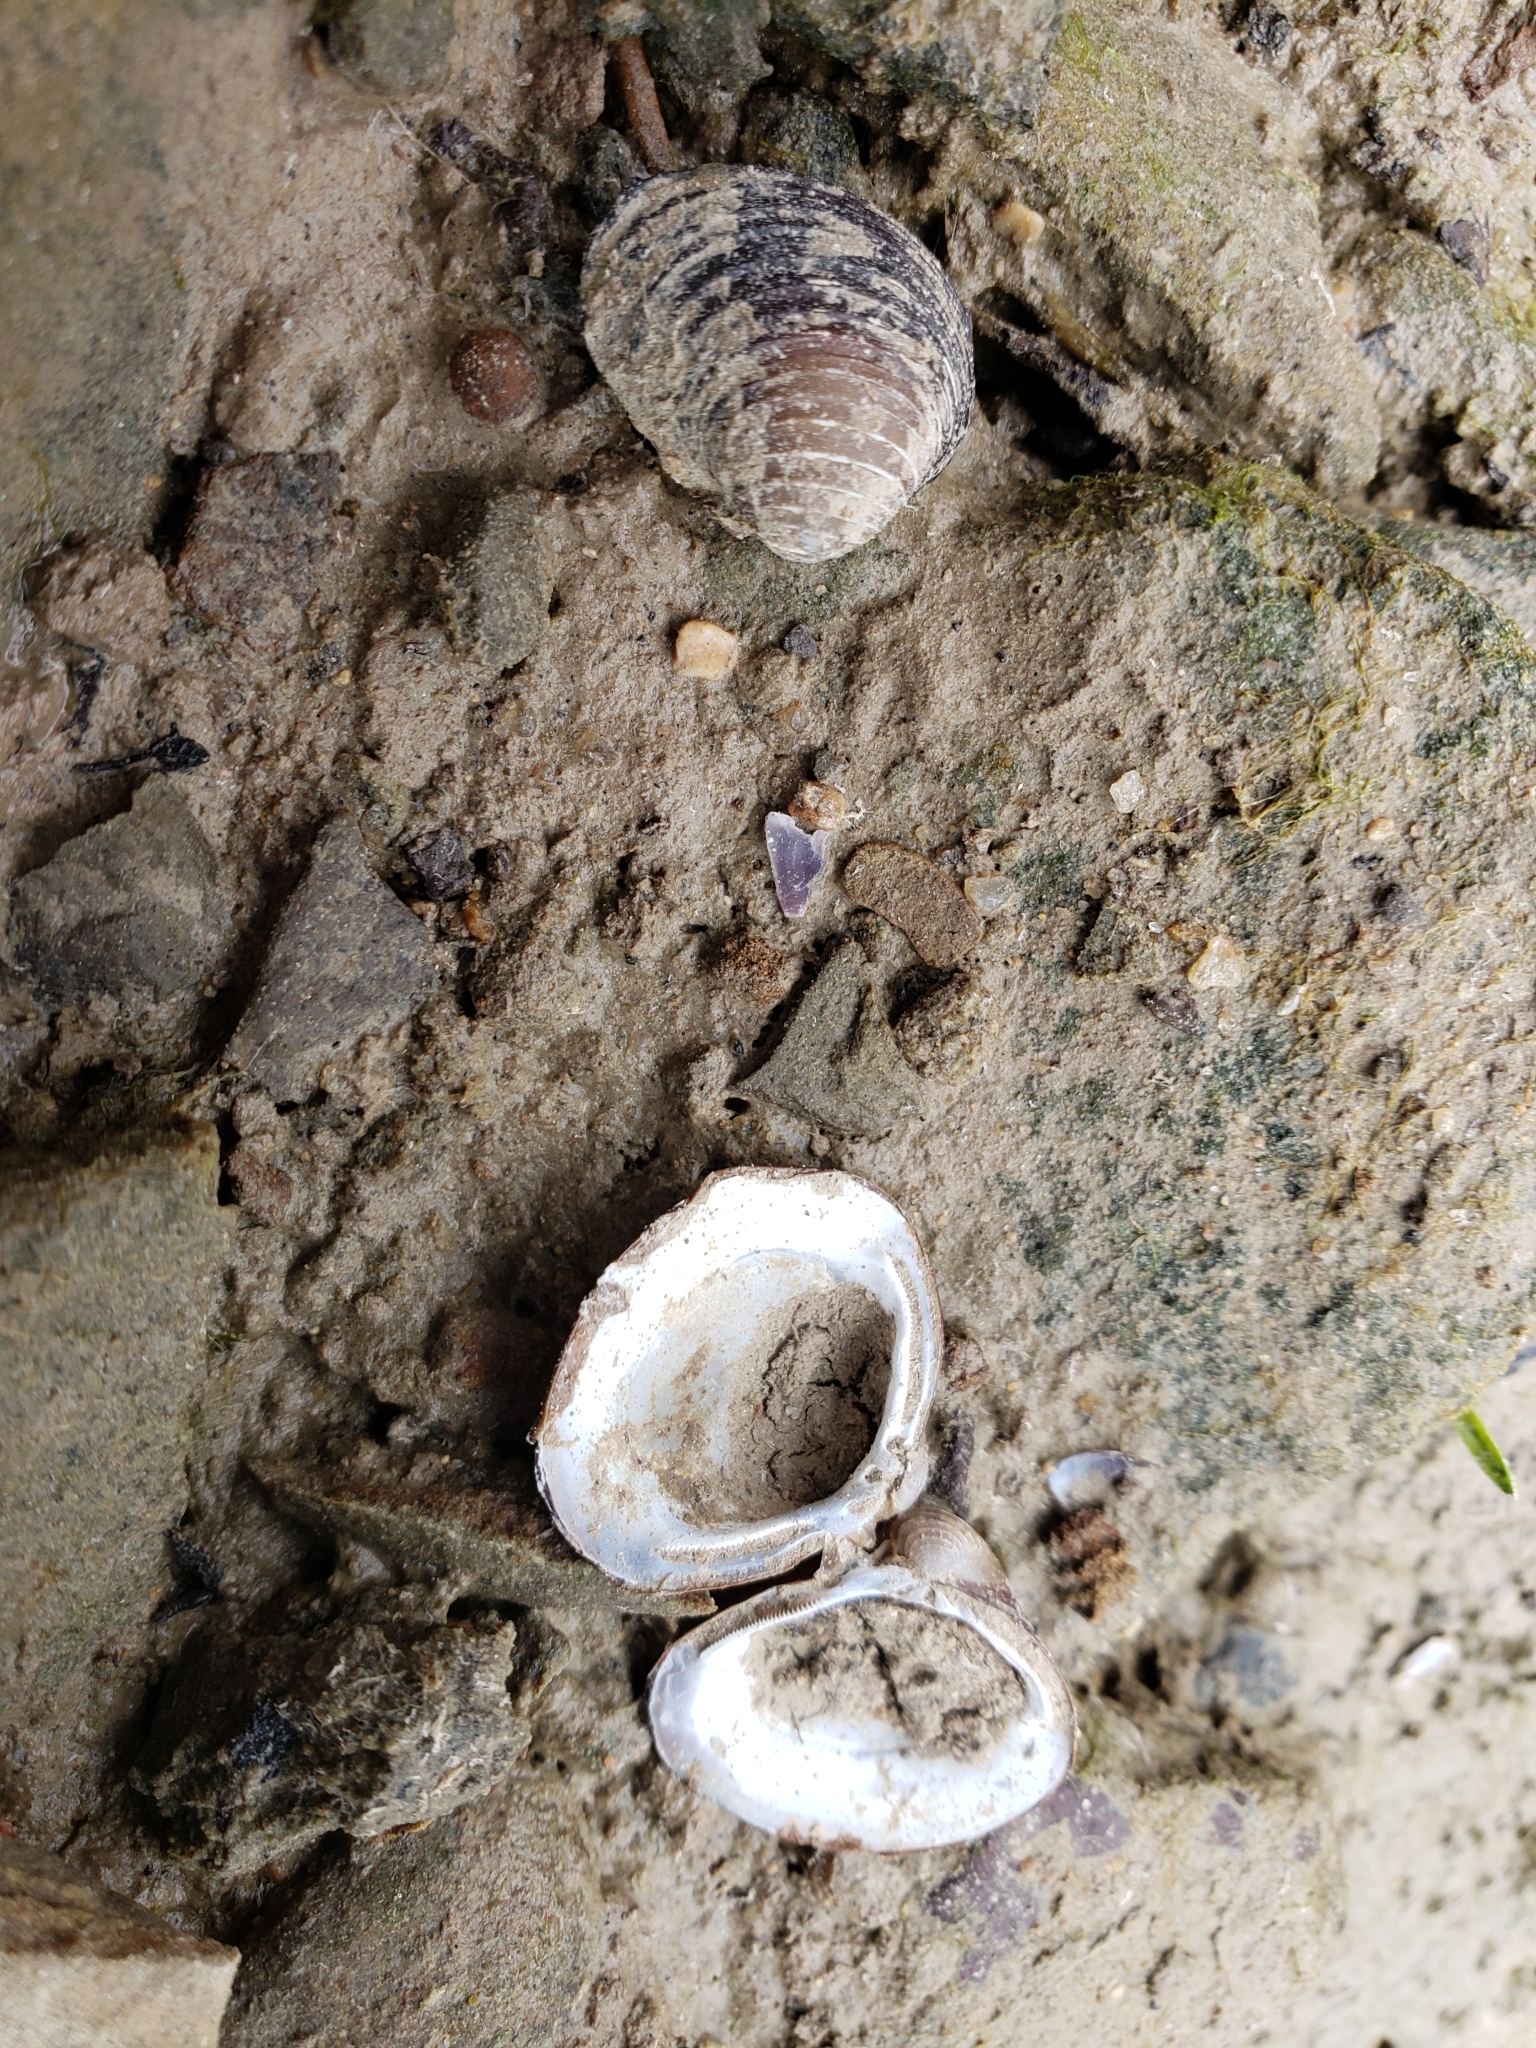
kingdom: Animalia
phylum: Mollusca
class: Bivalvia
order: Venerida
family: Cyrenidae
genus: Corbicula
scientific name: Corbicula fluminea
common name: Asian clam
